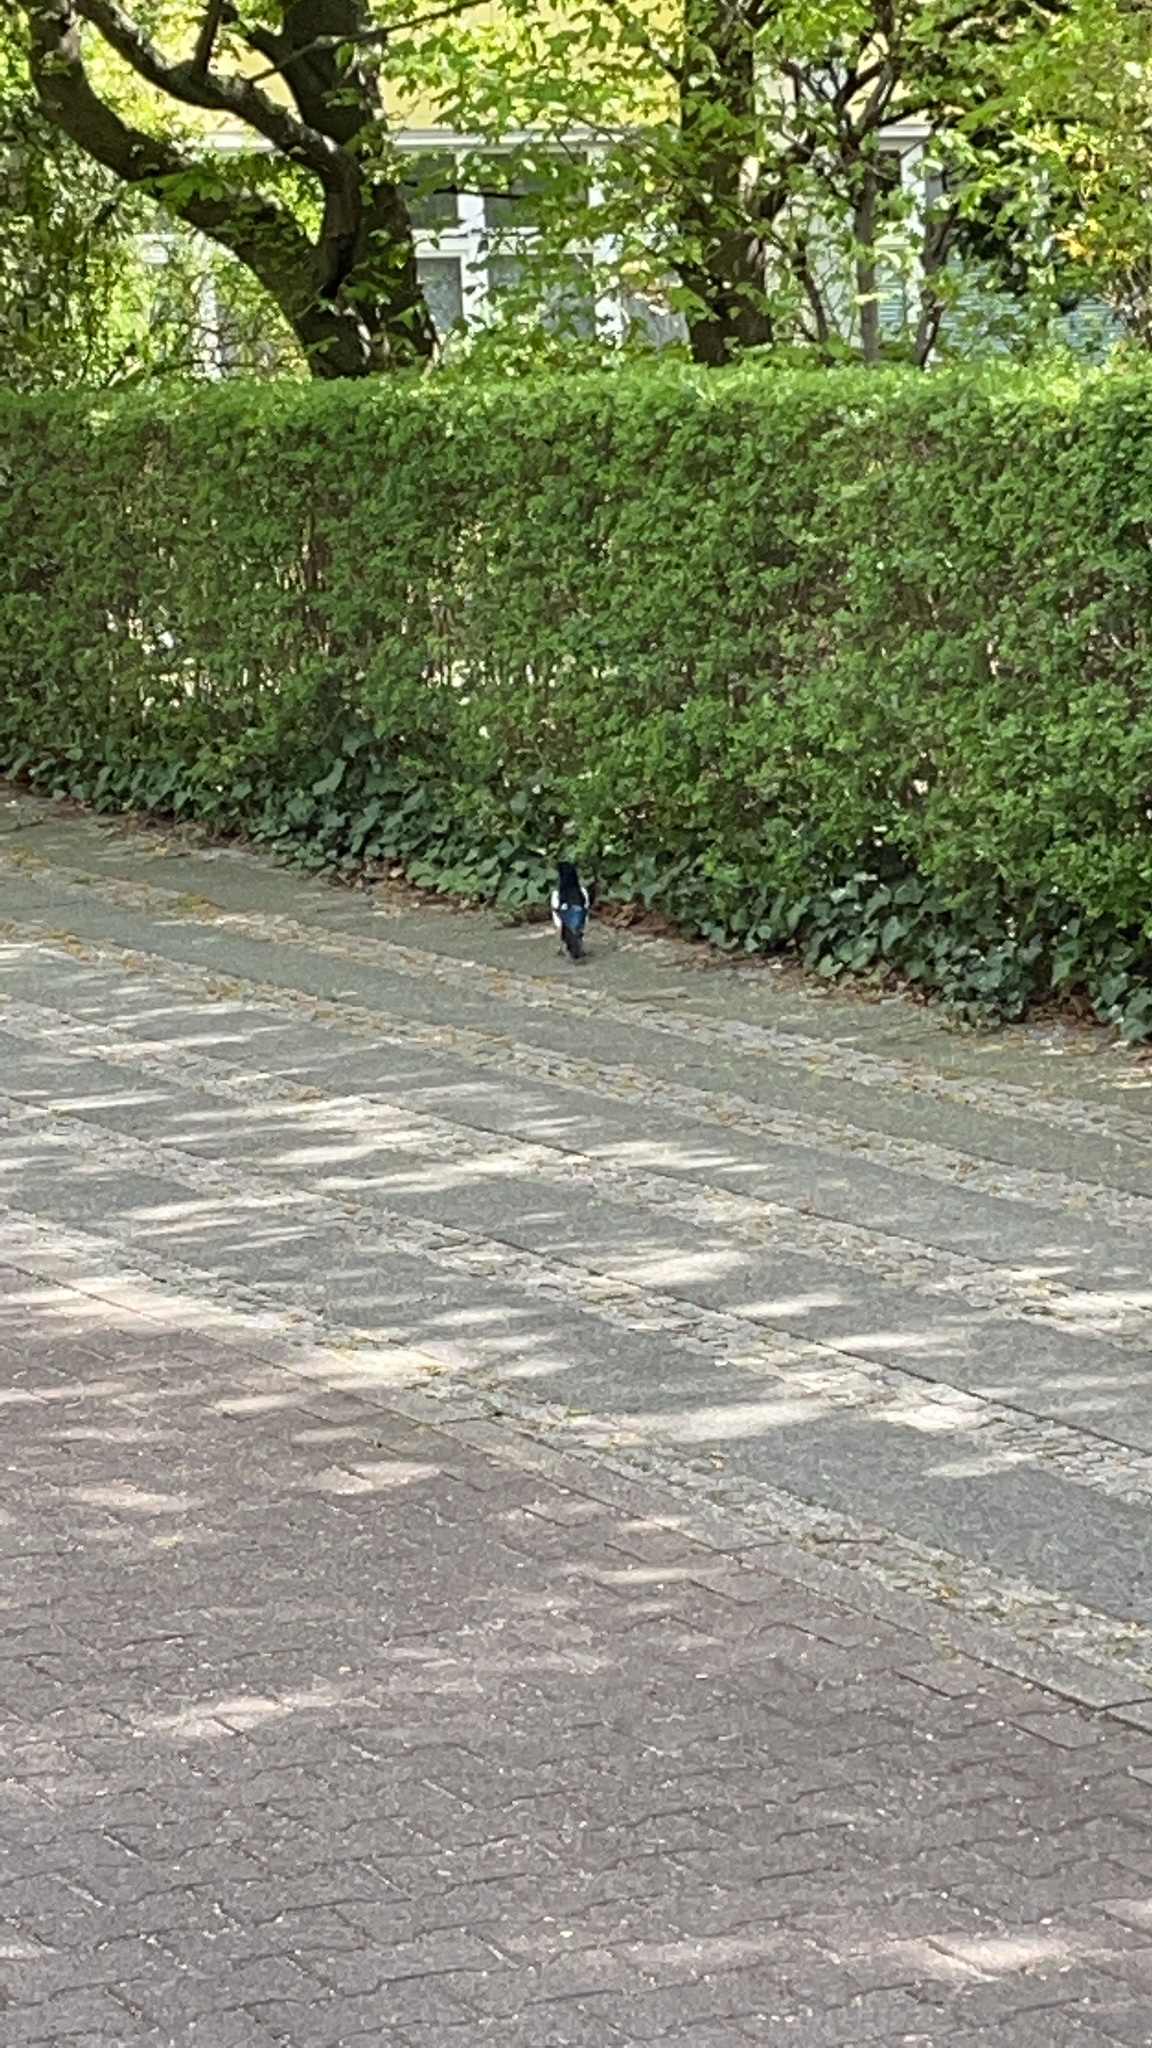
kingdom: Animalia
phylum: Chordata
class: Aves
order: Passeriformes
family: Corvidae
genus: Pica
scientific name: Pica pica
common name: Eurasian magpie
